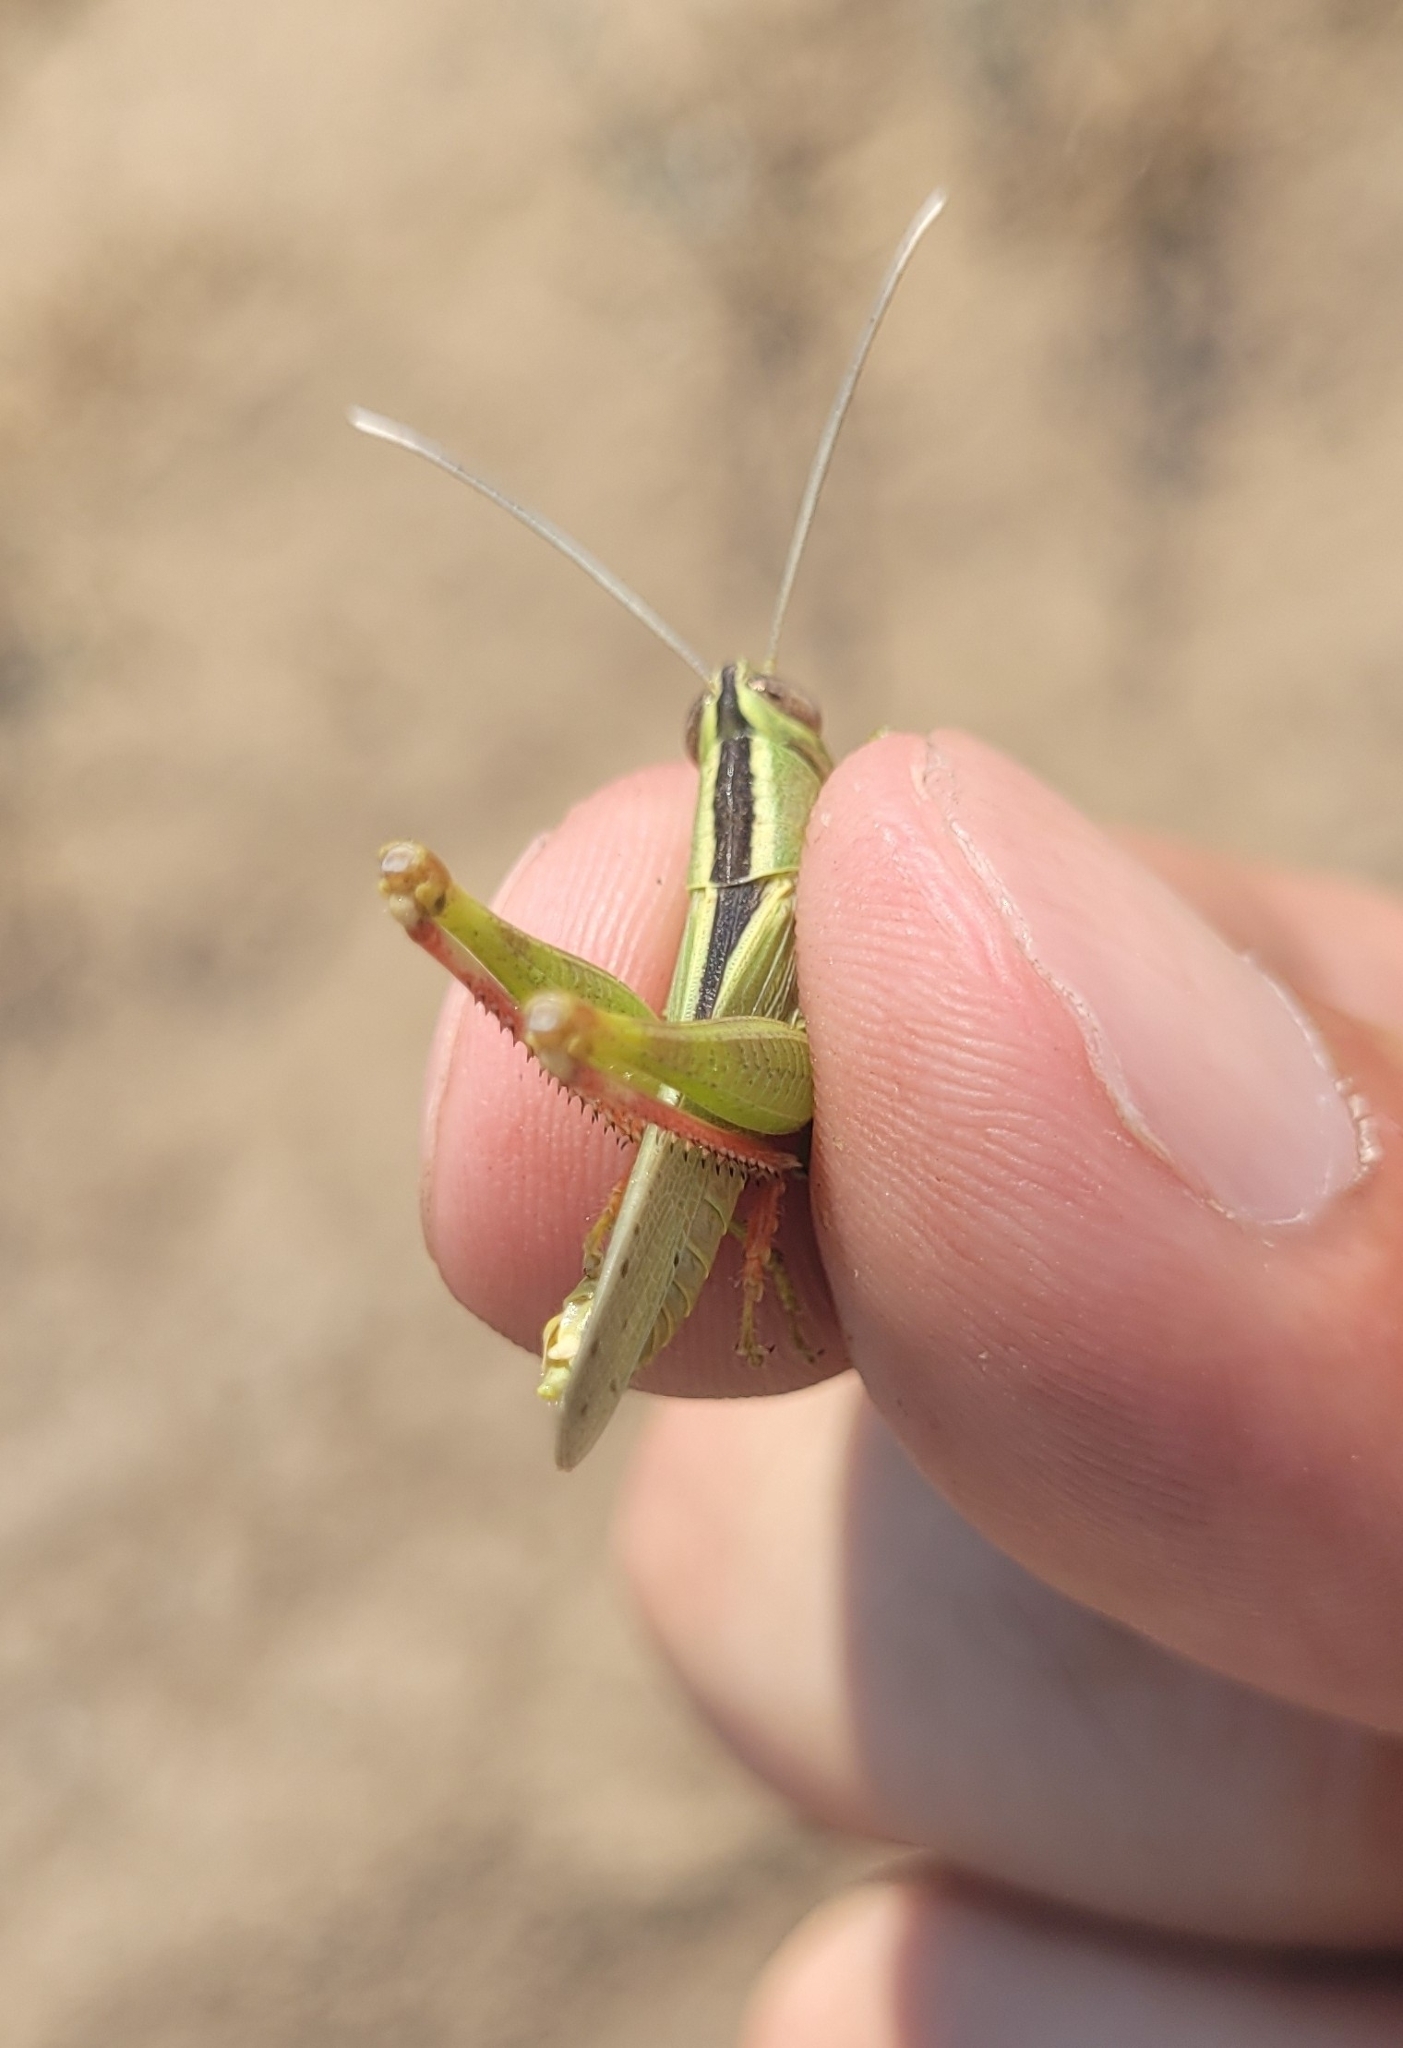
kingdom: Animalia
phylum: Arthropoda
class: Insecta
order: Orthoptera
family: Acrididae
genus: Heteracris
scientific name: Heteracris pterosticha
